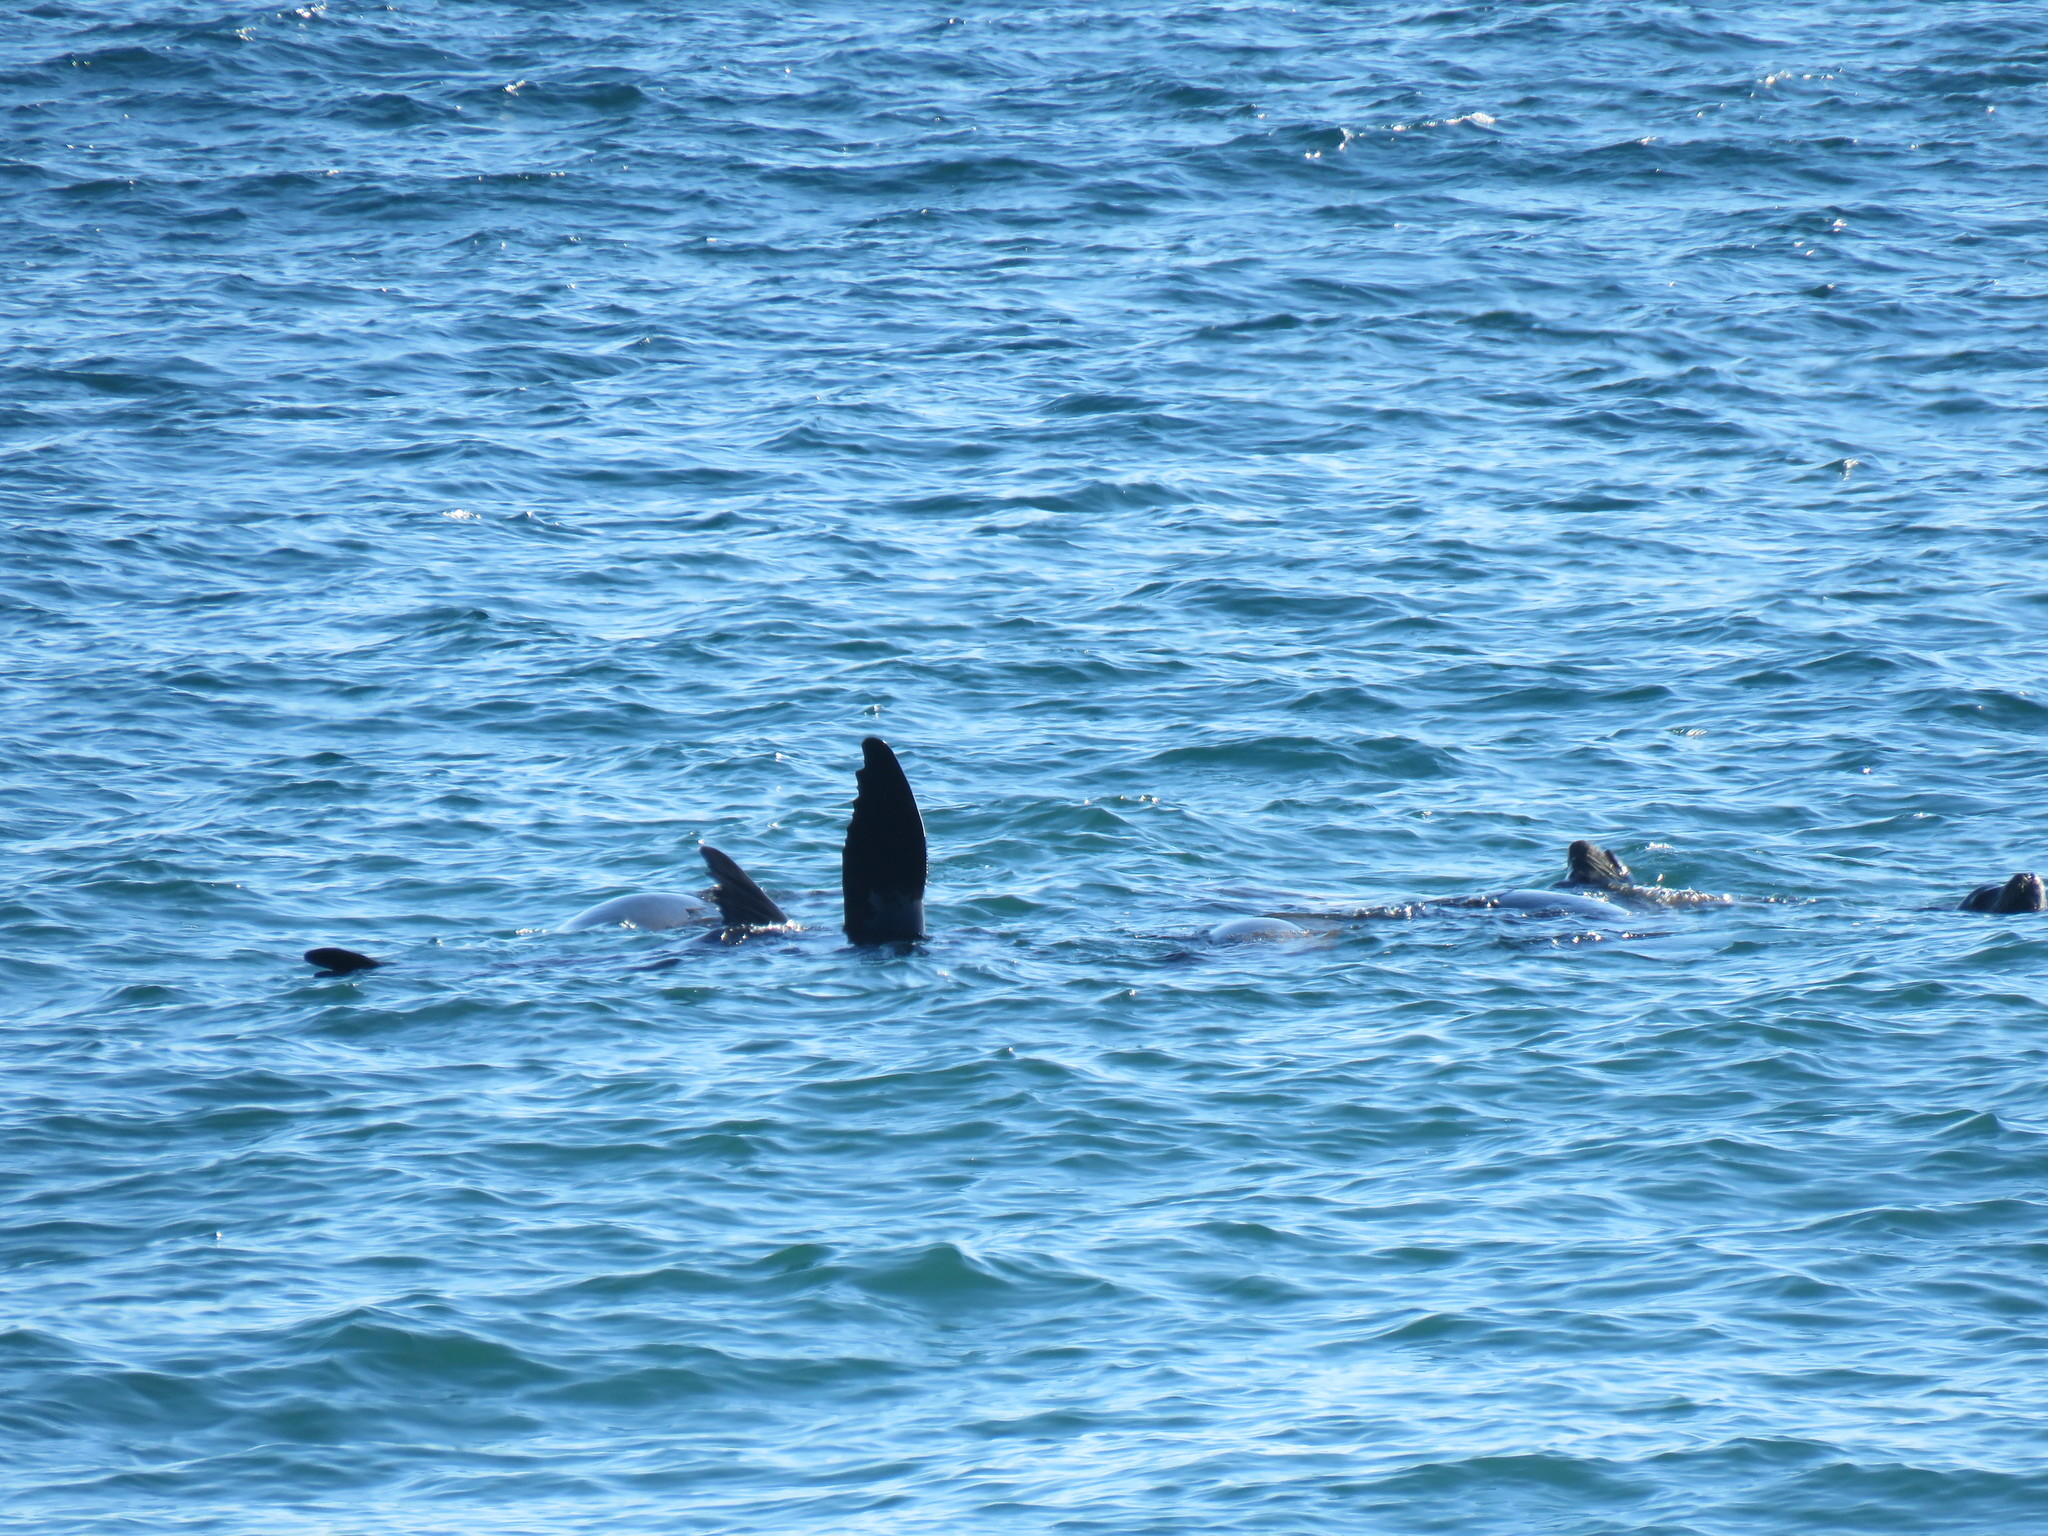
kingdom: Animalia
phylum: Chordata
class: Mammalia
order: Carnivora
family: Otariidae
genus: Zalophus
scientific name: Zalophus californianus
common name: California sea lion
